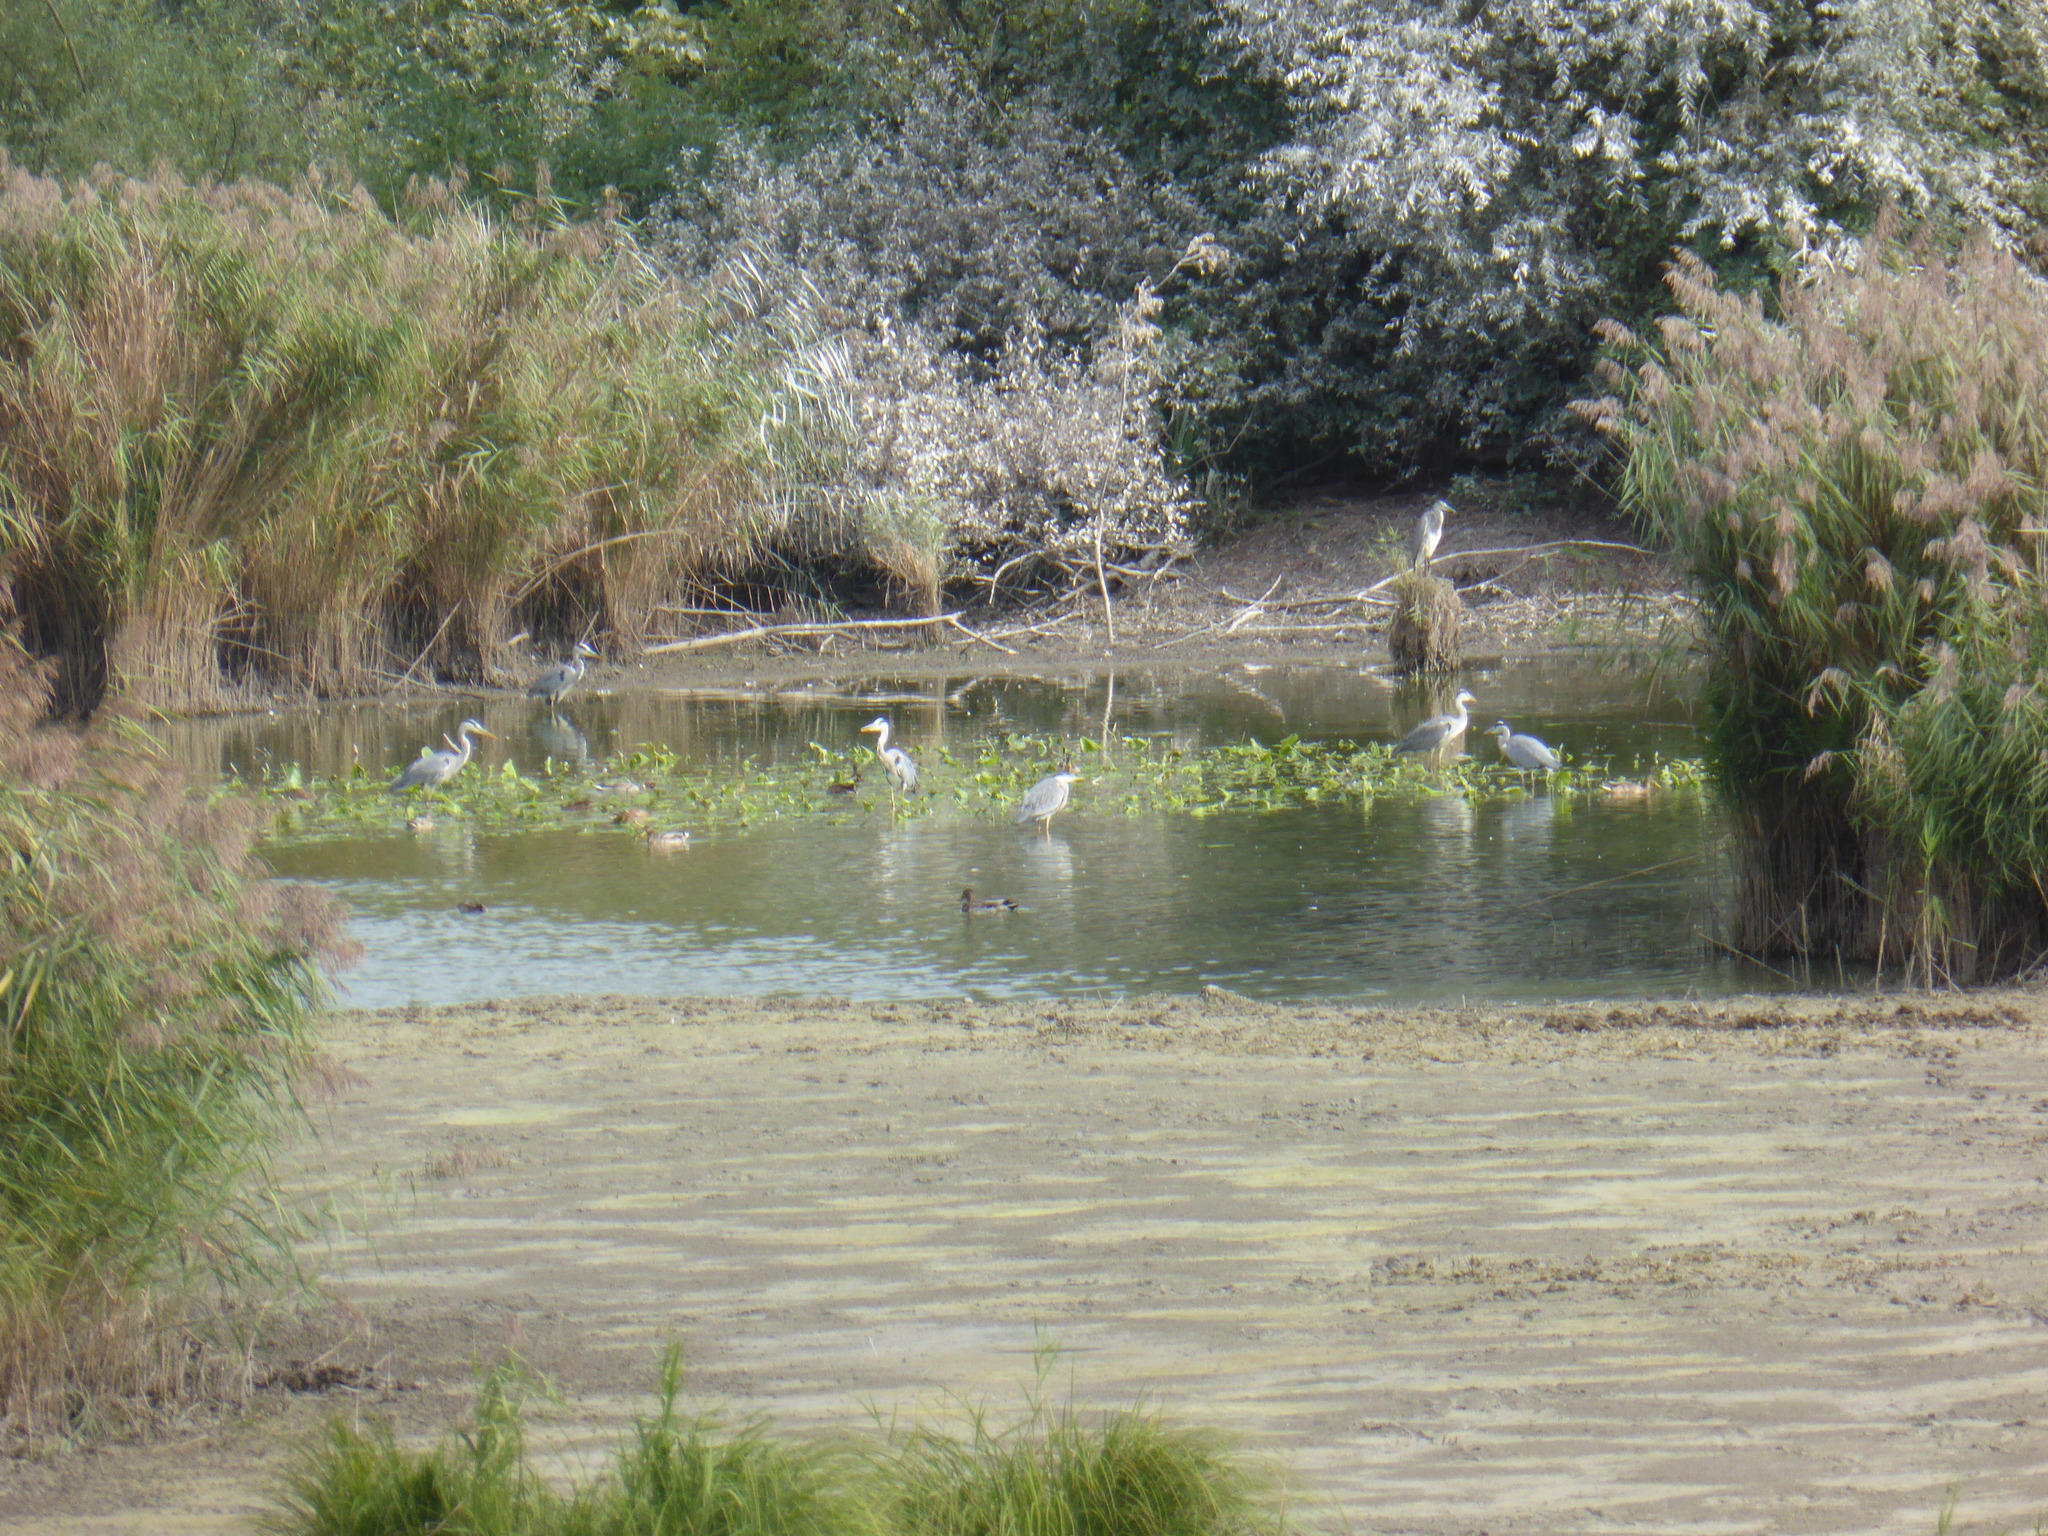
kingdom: Animalia
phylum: Chordata
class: Aves
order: Pelecaniformes
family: Ardeidae
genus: Ardea
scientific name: Ardea cinerea
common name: Grey heron
